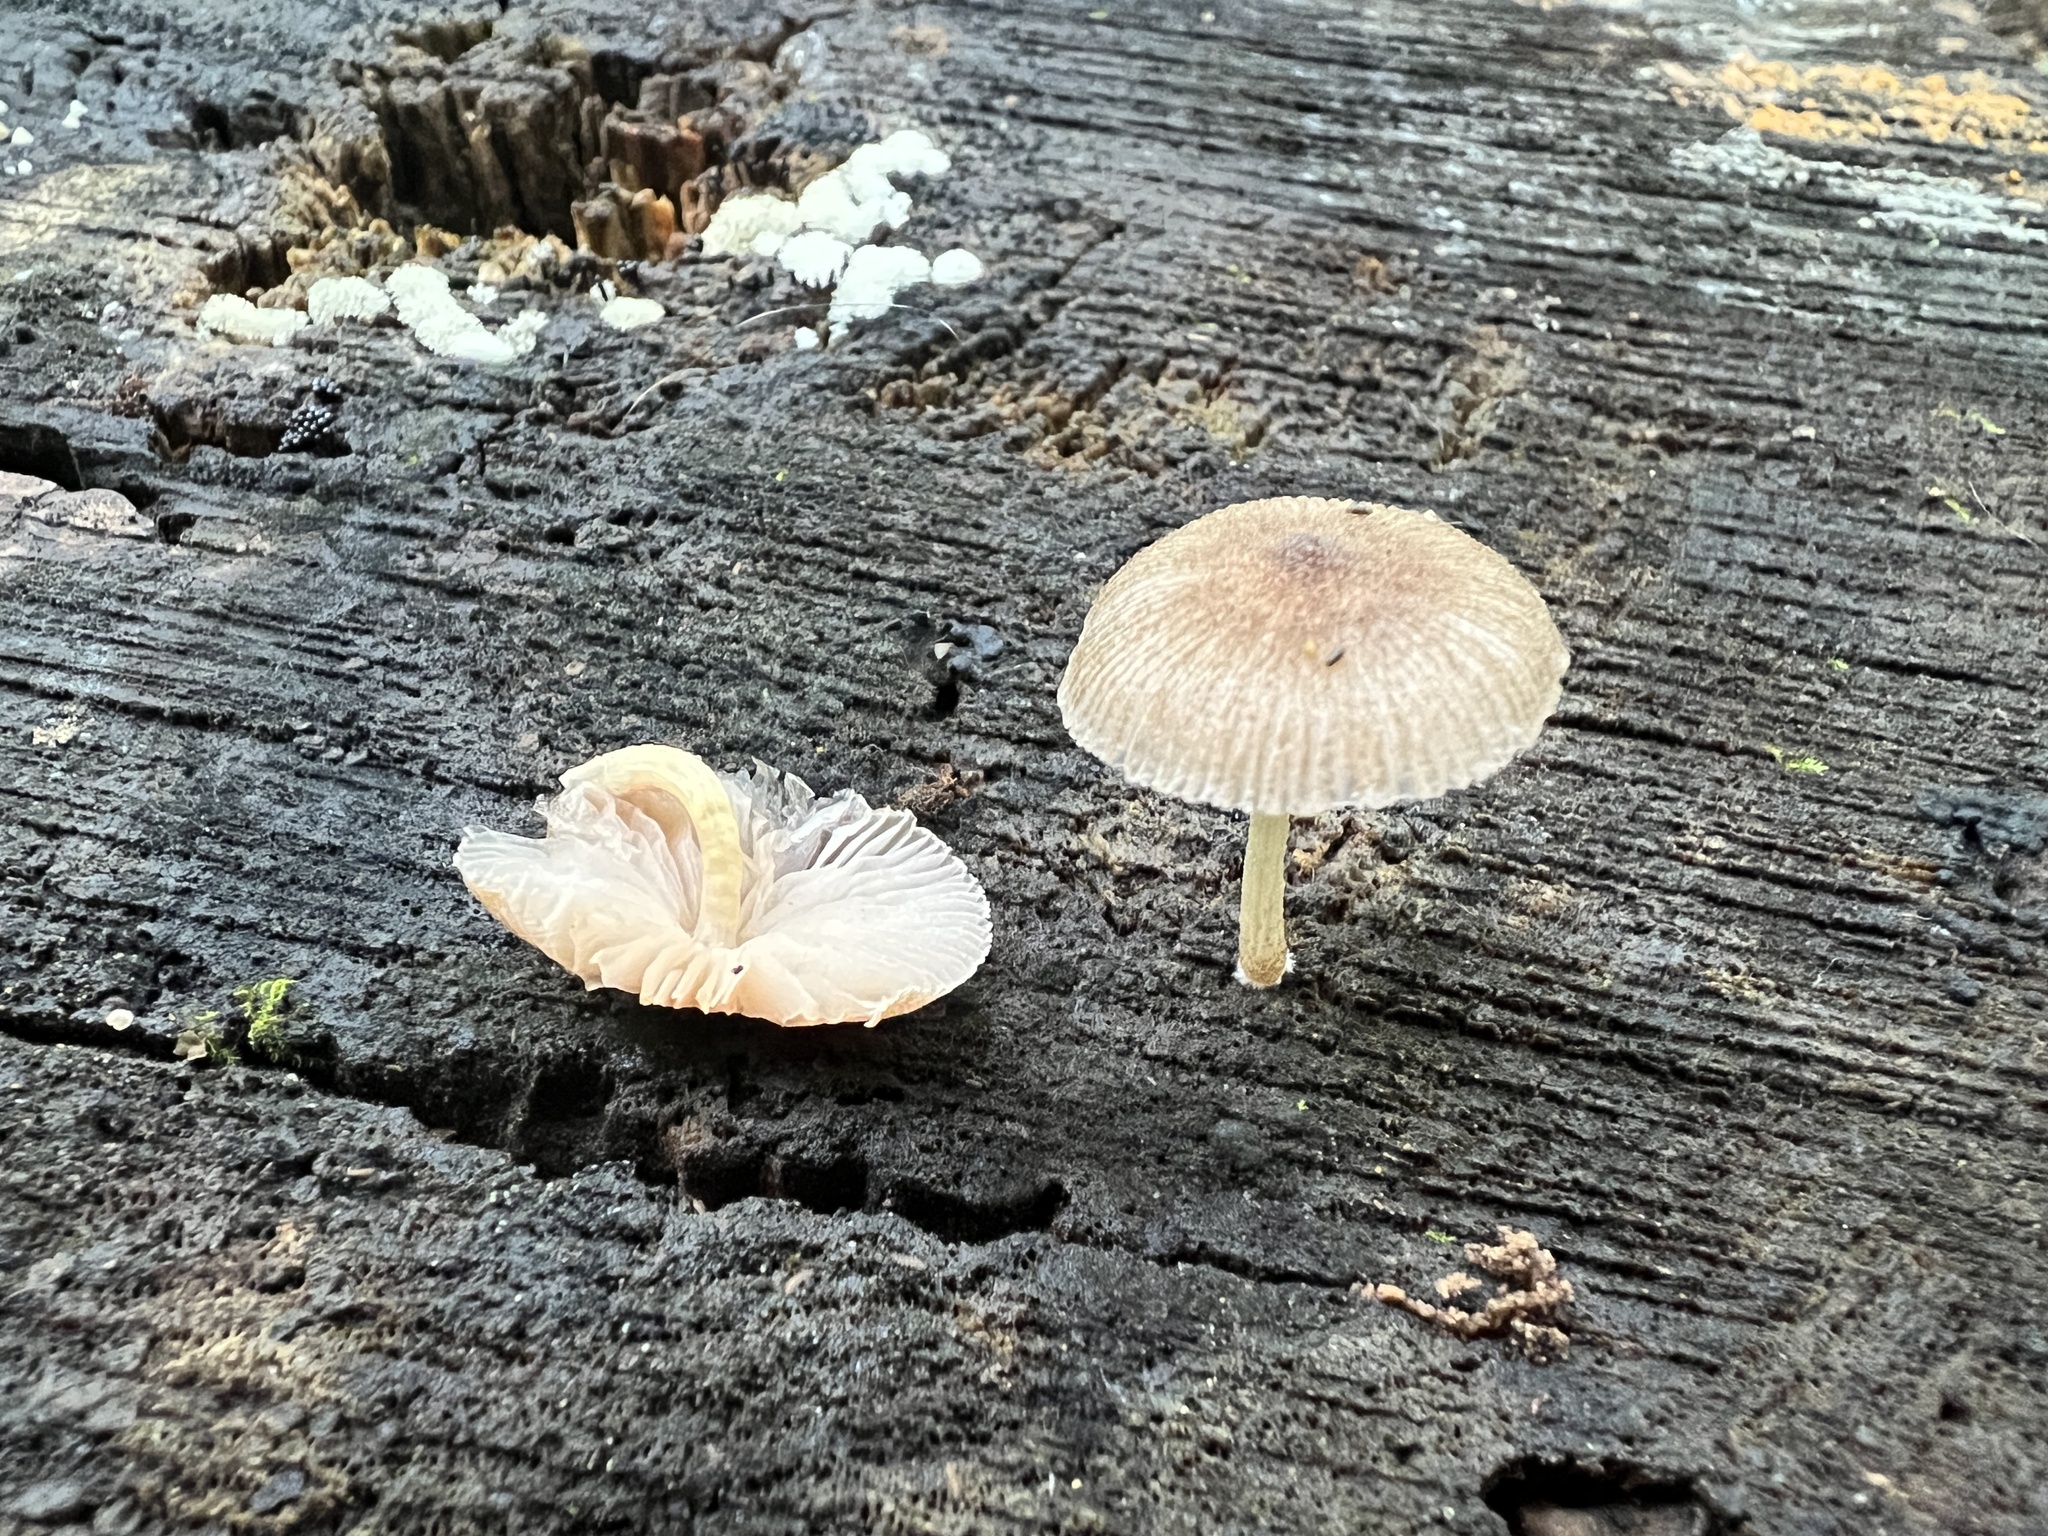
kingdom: Fungi
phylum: Basidiomycota
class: Agaricomycetes
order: Agaricales
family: Pluteaceae
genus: Pluteus
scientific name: Pluteus longistriatus
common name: Pleated pluteus
